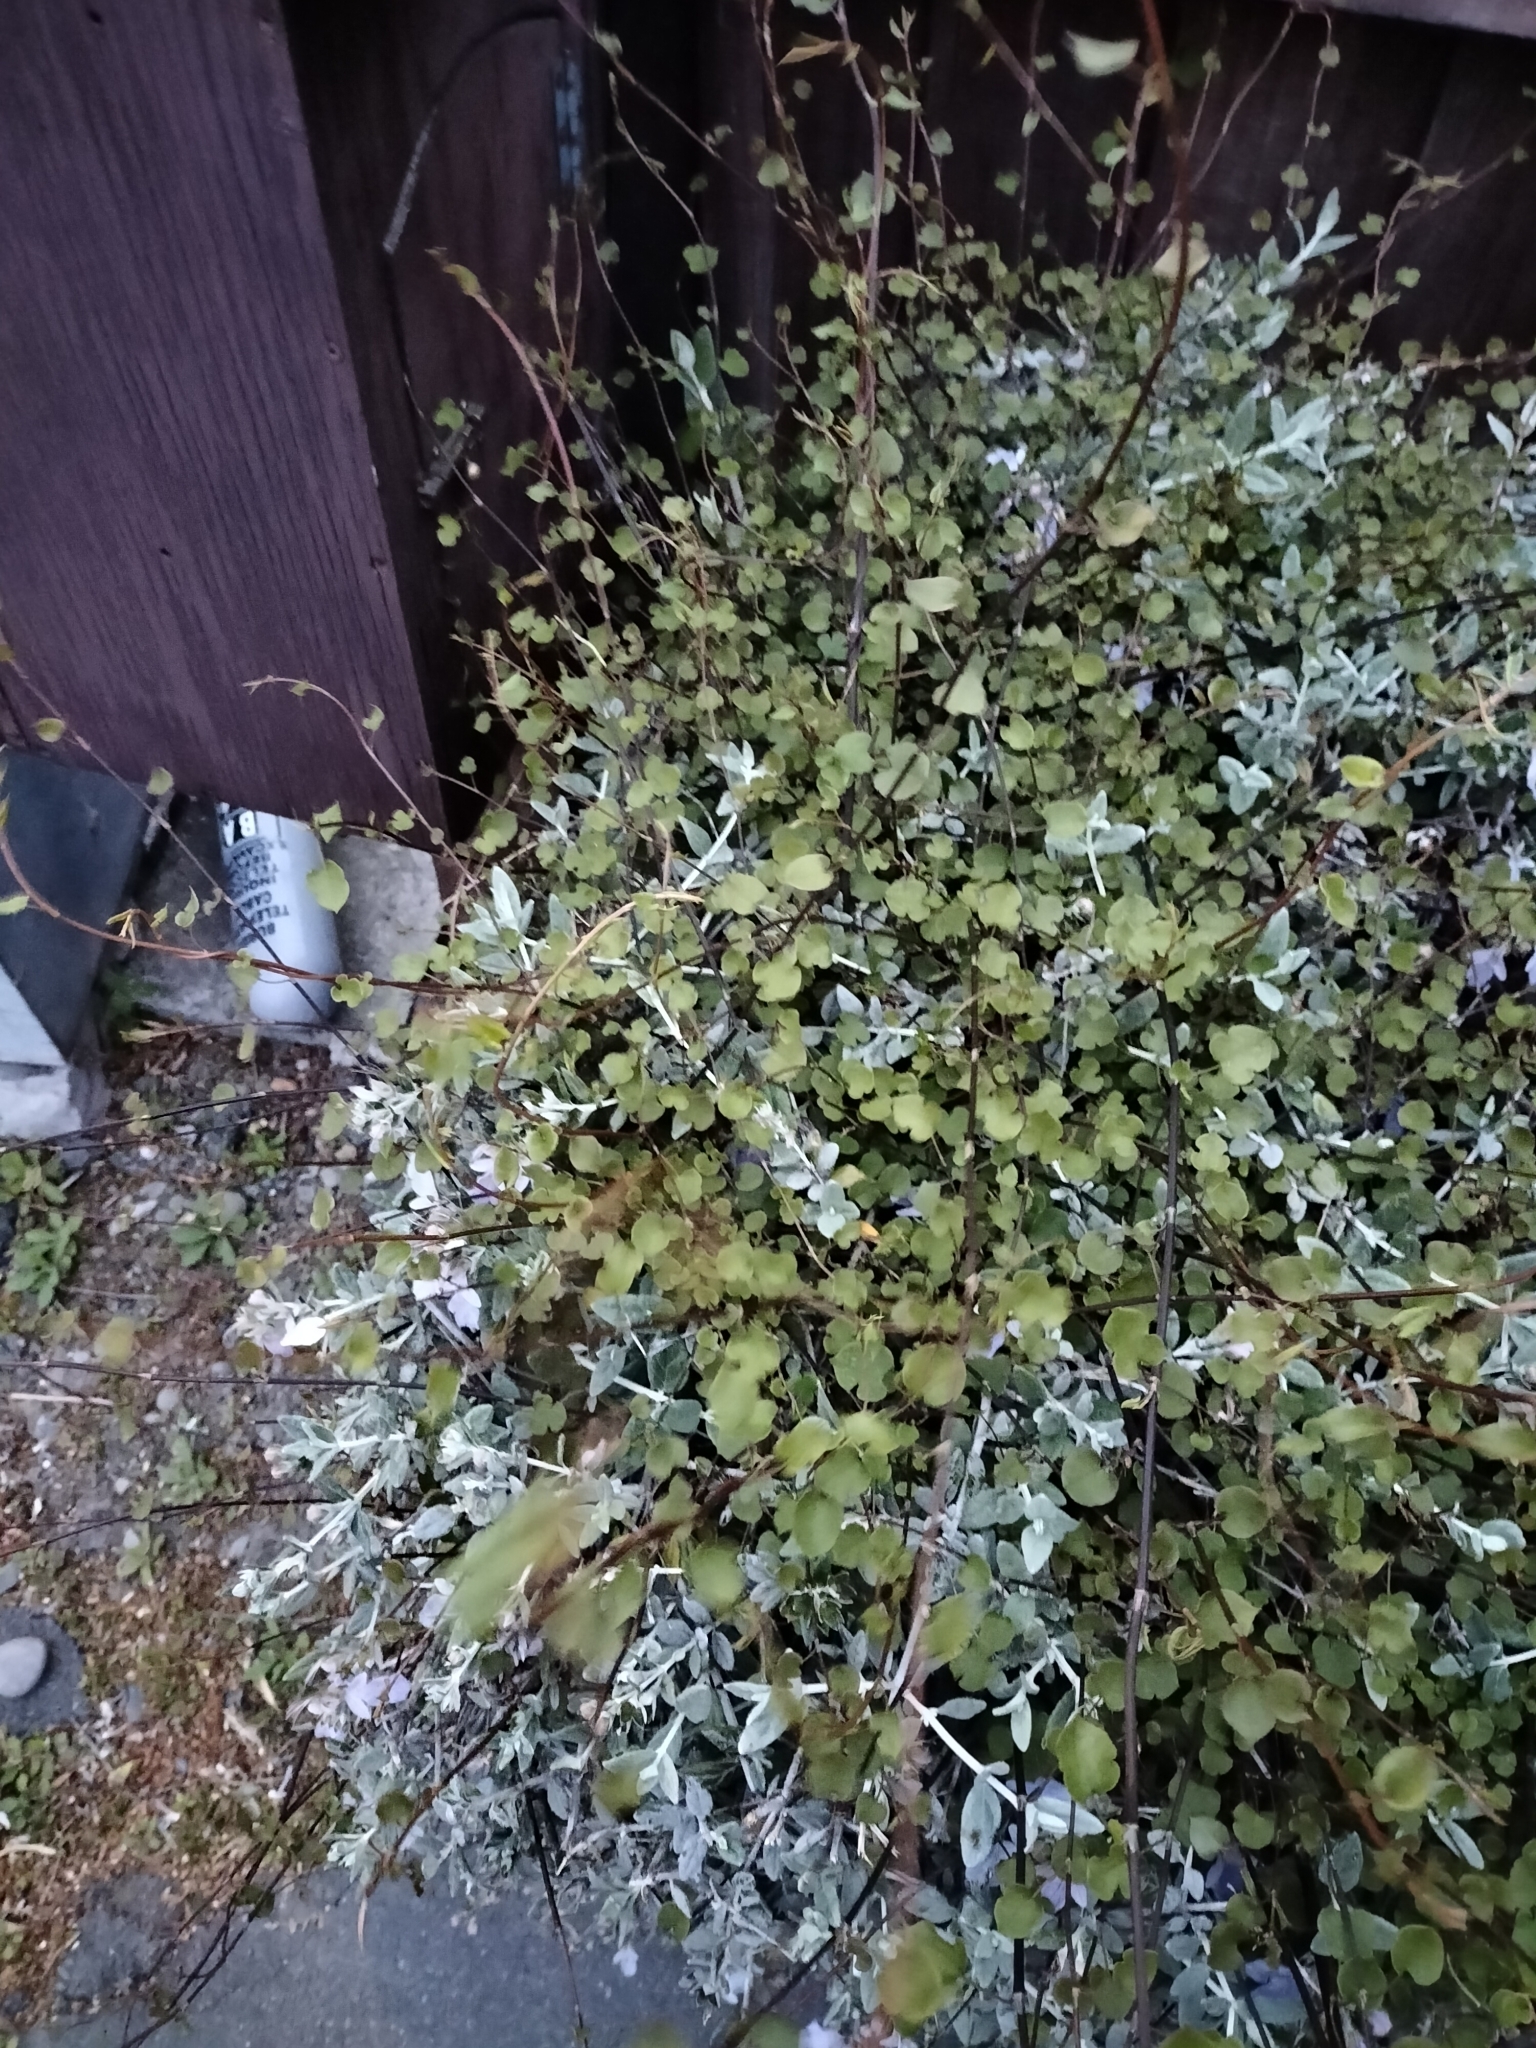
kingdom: Plantae
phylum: Tracheophyta
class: Magnoliopsida
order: Caryophyllales
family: Polygonaceae
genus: Muehlenbeckia
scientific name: Muehlenbeckia complexa
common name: Wireplant
